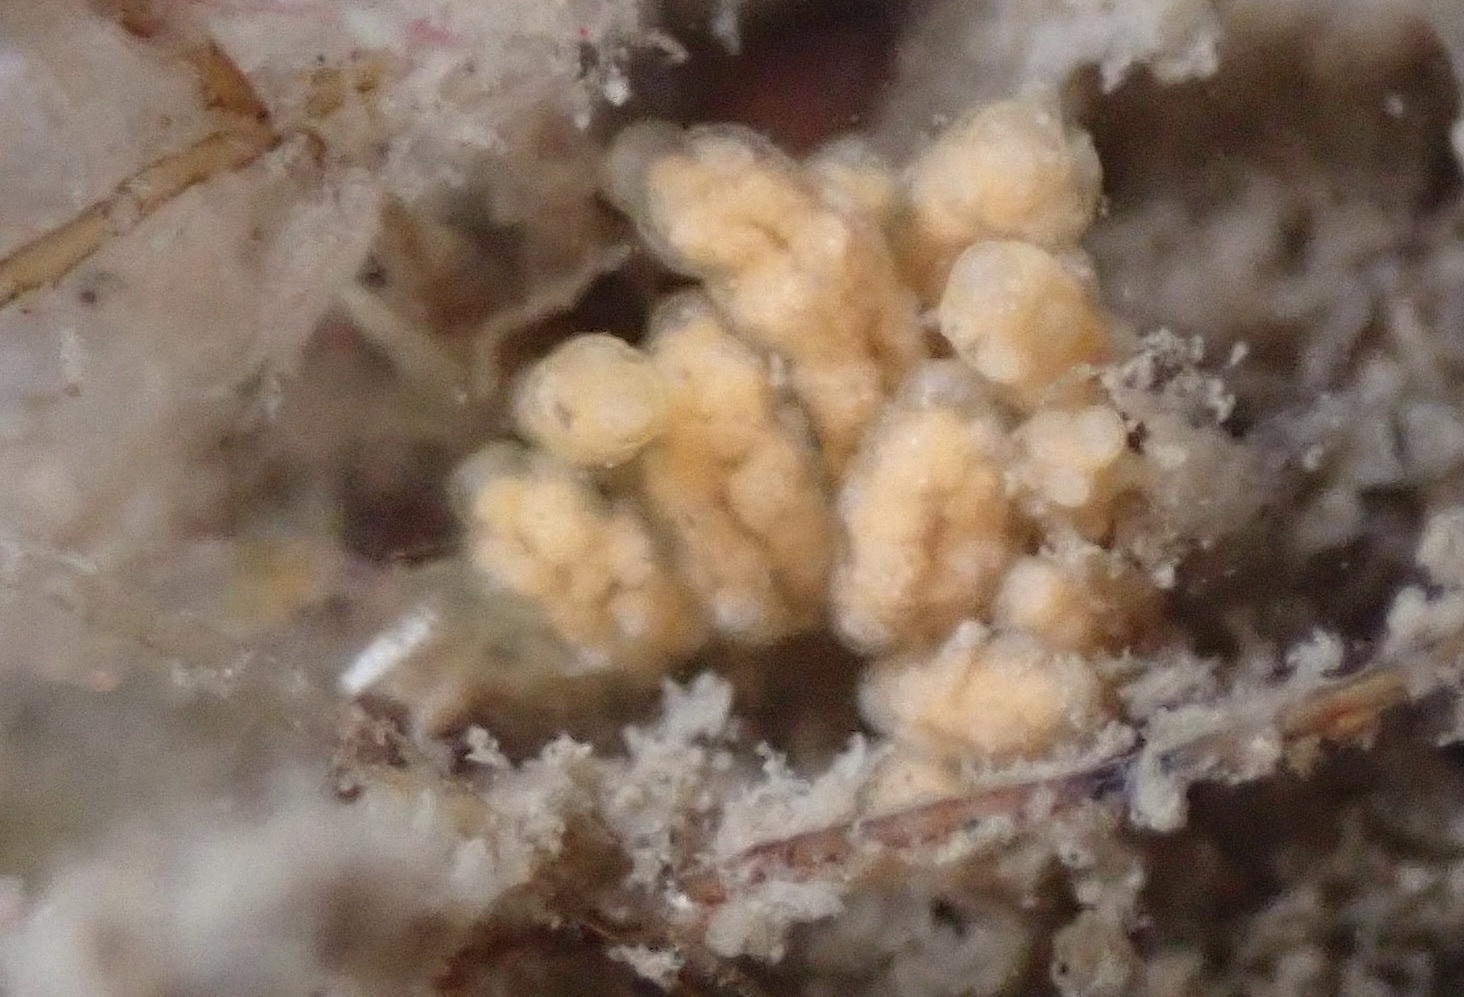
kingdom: Animalia
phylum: Mollusca
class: Gastropoda
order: Nudibranchia
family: Dotidae
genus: Doto
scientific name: Doto kya
